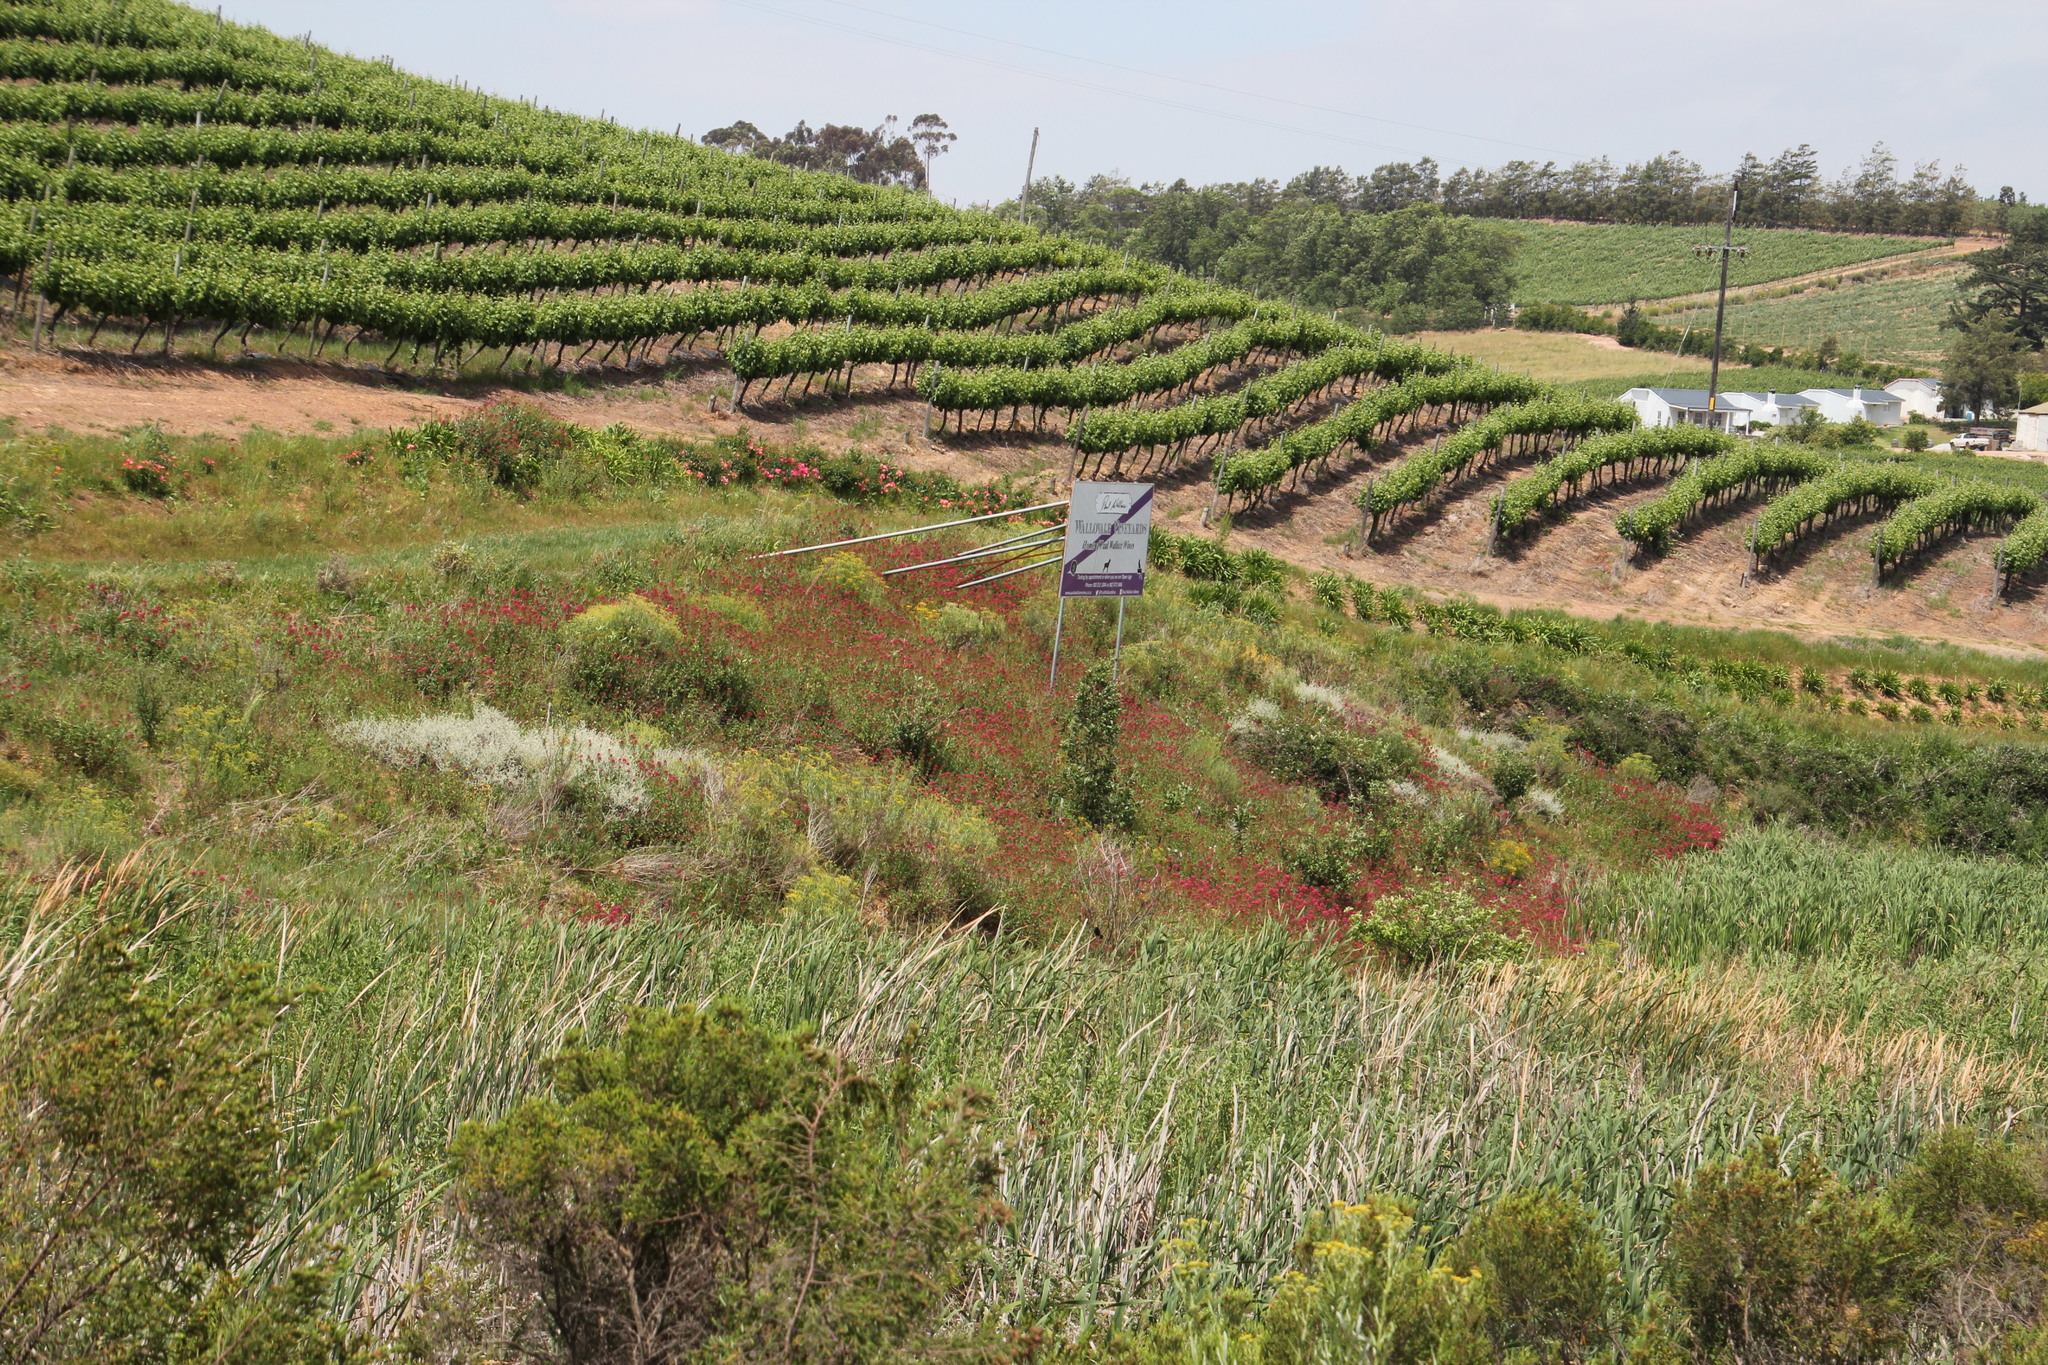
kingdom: Plantae
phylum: Tracheophyta
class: Magnoliopsida
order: Dipsacales
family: Caprifoliaceae
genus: Centranthus
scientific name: Centranthus ruber
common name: Red valerian
